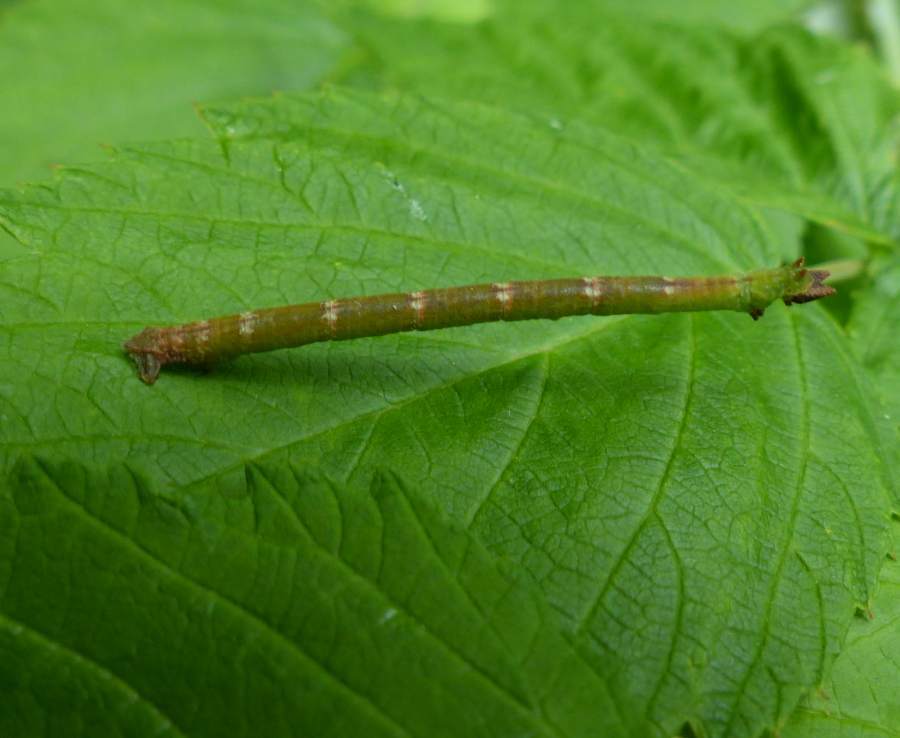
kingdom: Animalia
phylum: Arthropoda
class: Insecta
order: Lepidoptera
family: Geometridae
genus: Thalera
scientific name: Thalera pistasciaria
